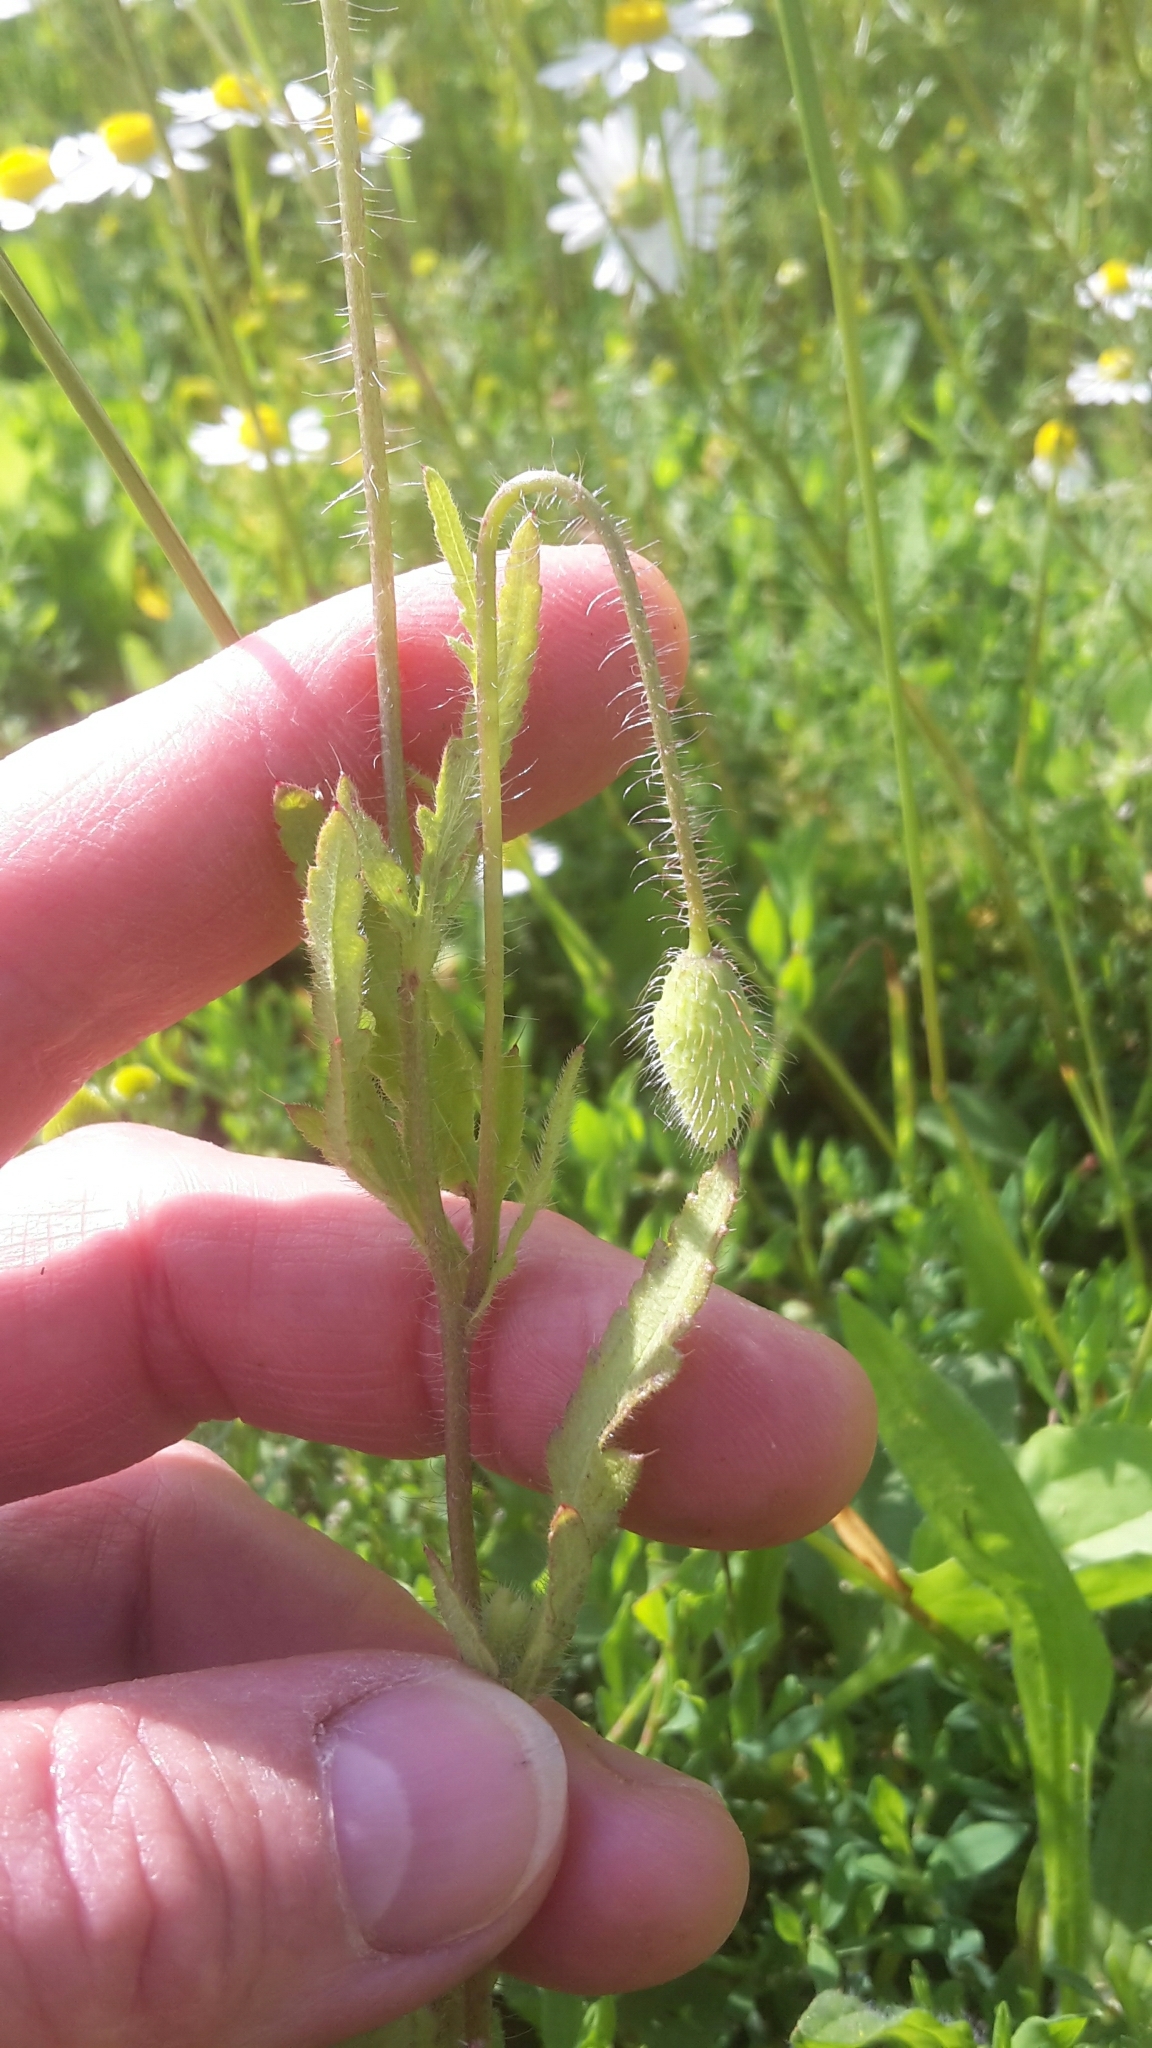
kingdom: Plantae
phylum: Tracheophyta
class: Magnoliopsida
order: Ranunculales
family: Papaveraceae
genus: Papaver
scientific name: Papaver rhoeas
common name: Corn poppy
